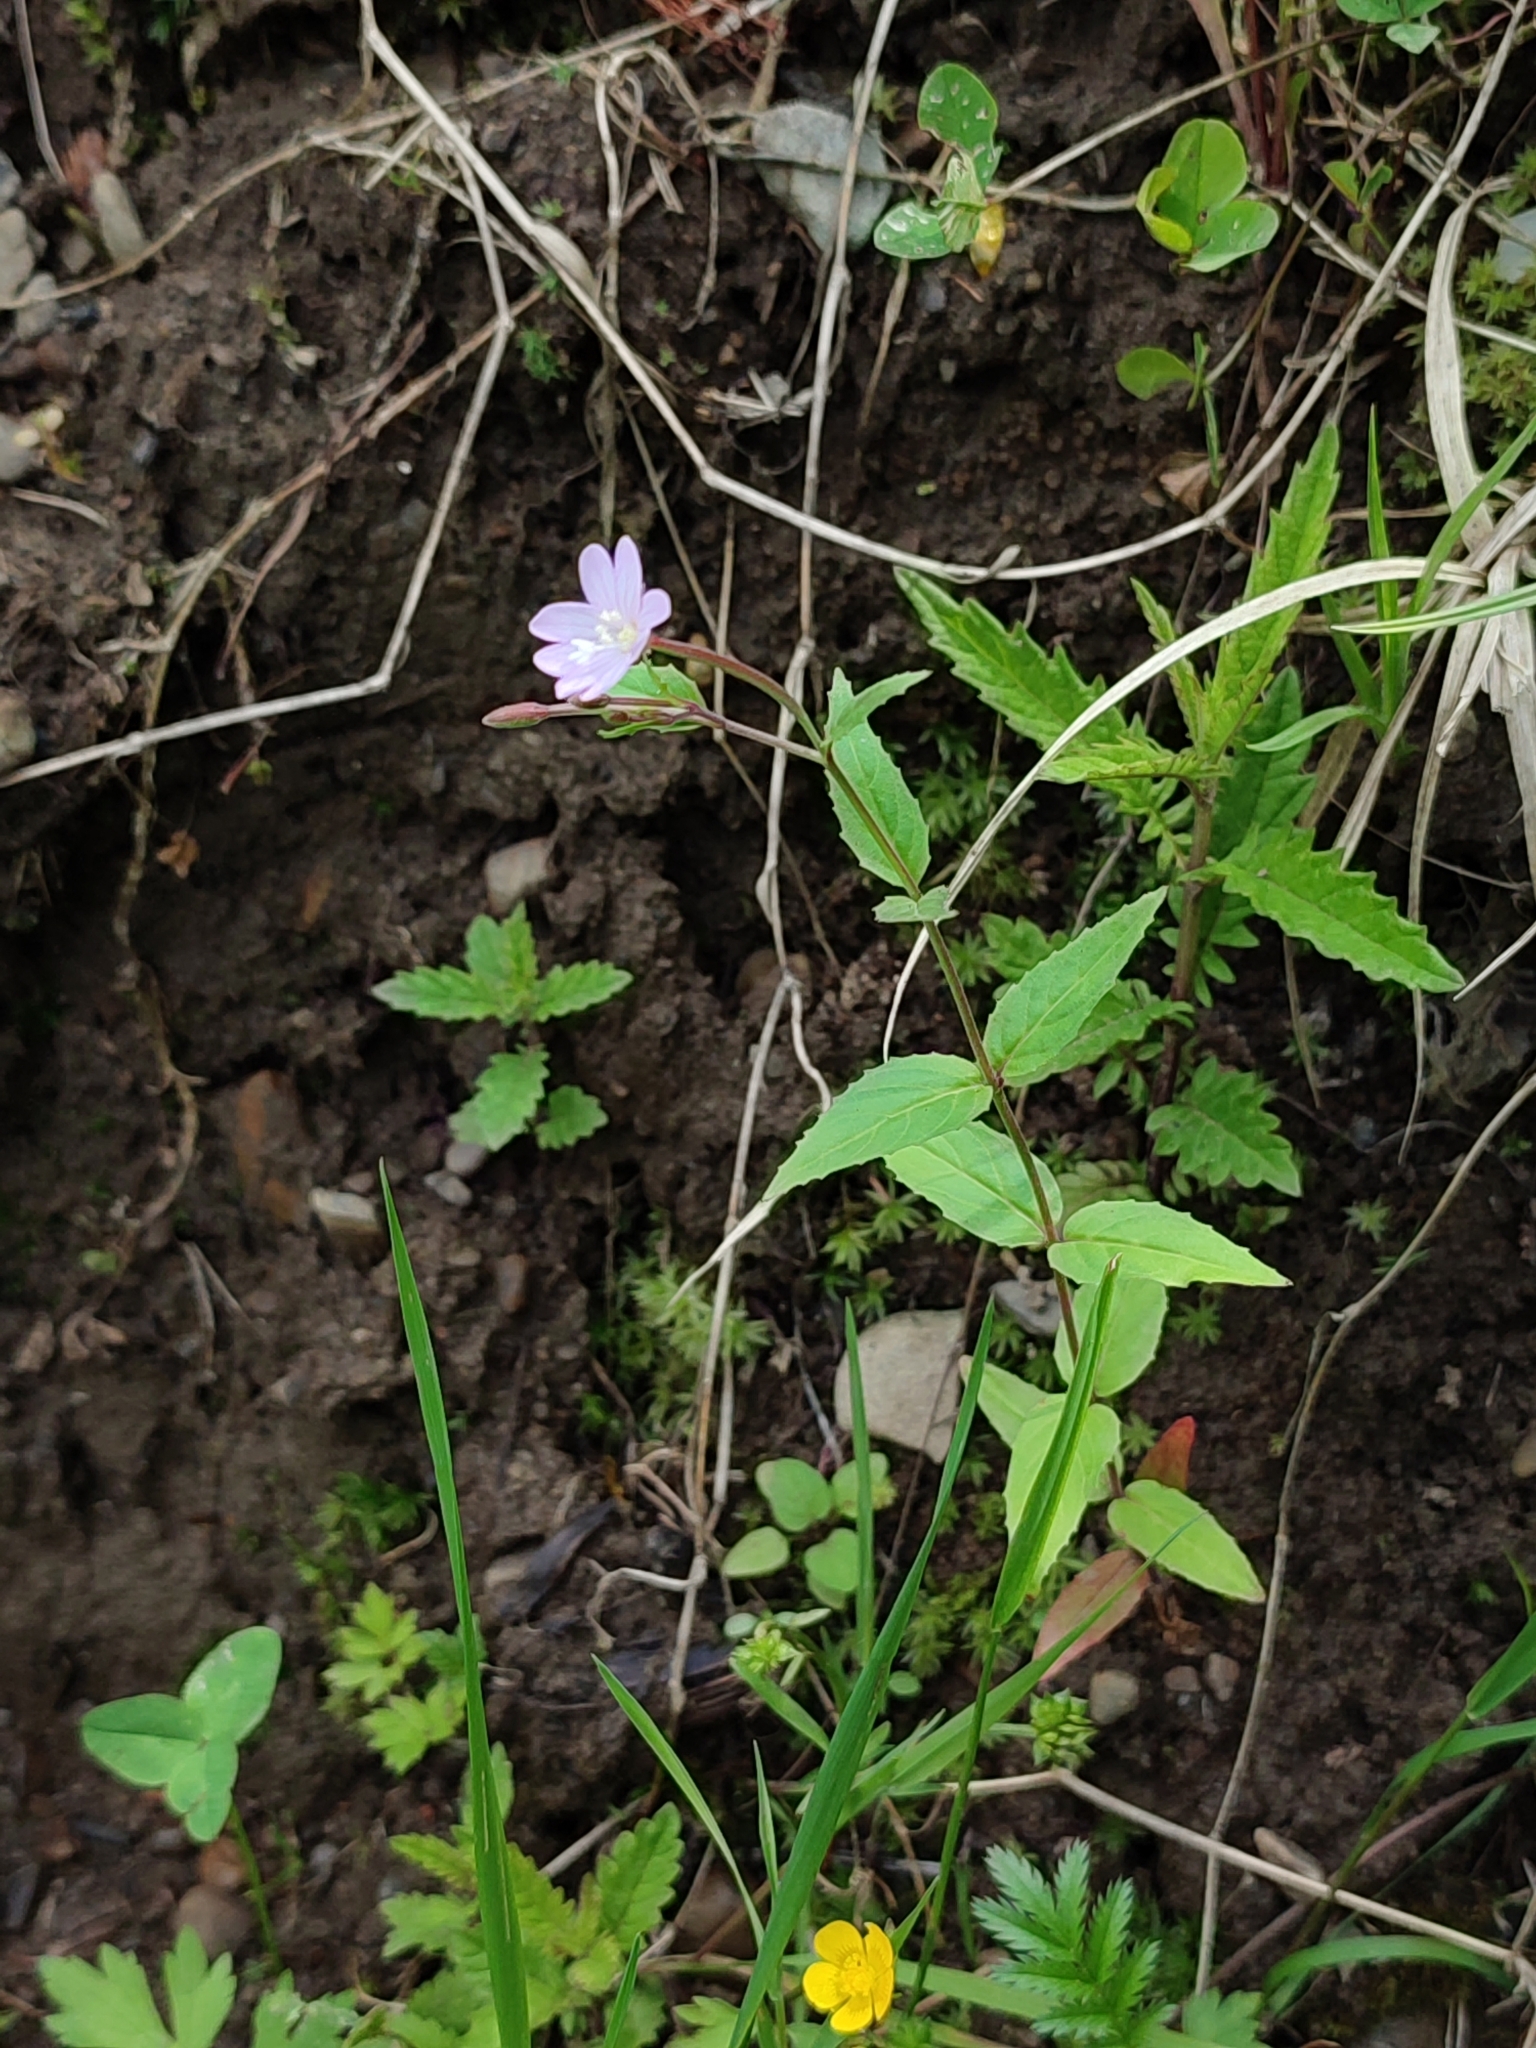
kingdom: Plantae
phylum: Tracheophyta
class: Magnoliopsida
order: Myrtales
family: Onagraceae
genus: Epilobium
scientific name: Epilobium montanum
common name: Broad-leaved willowherb
